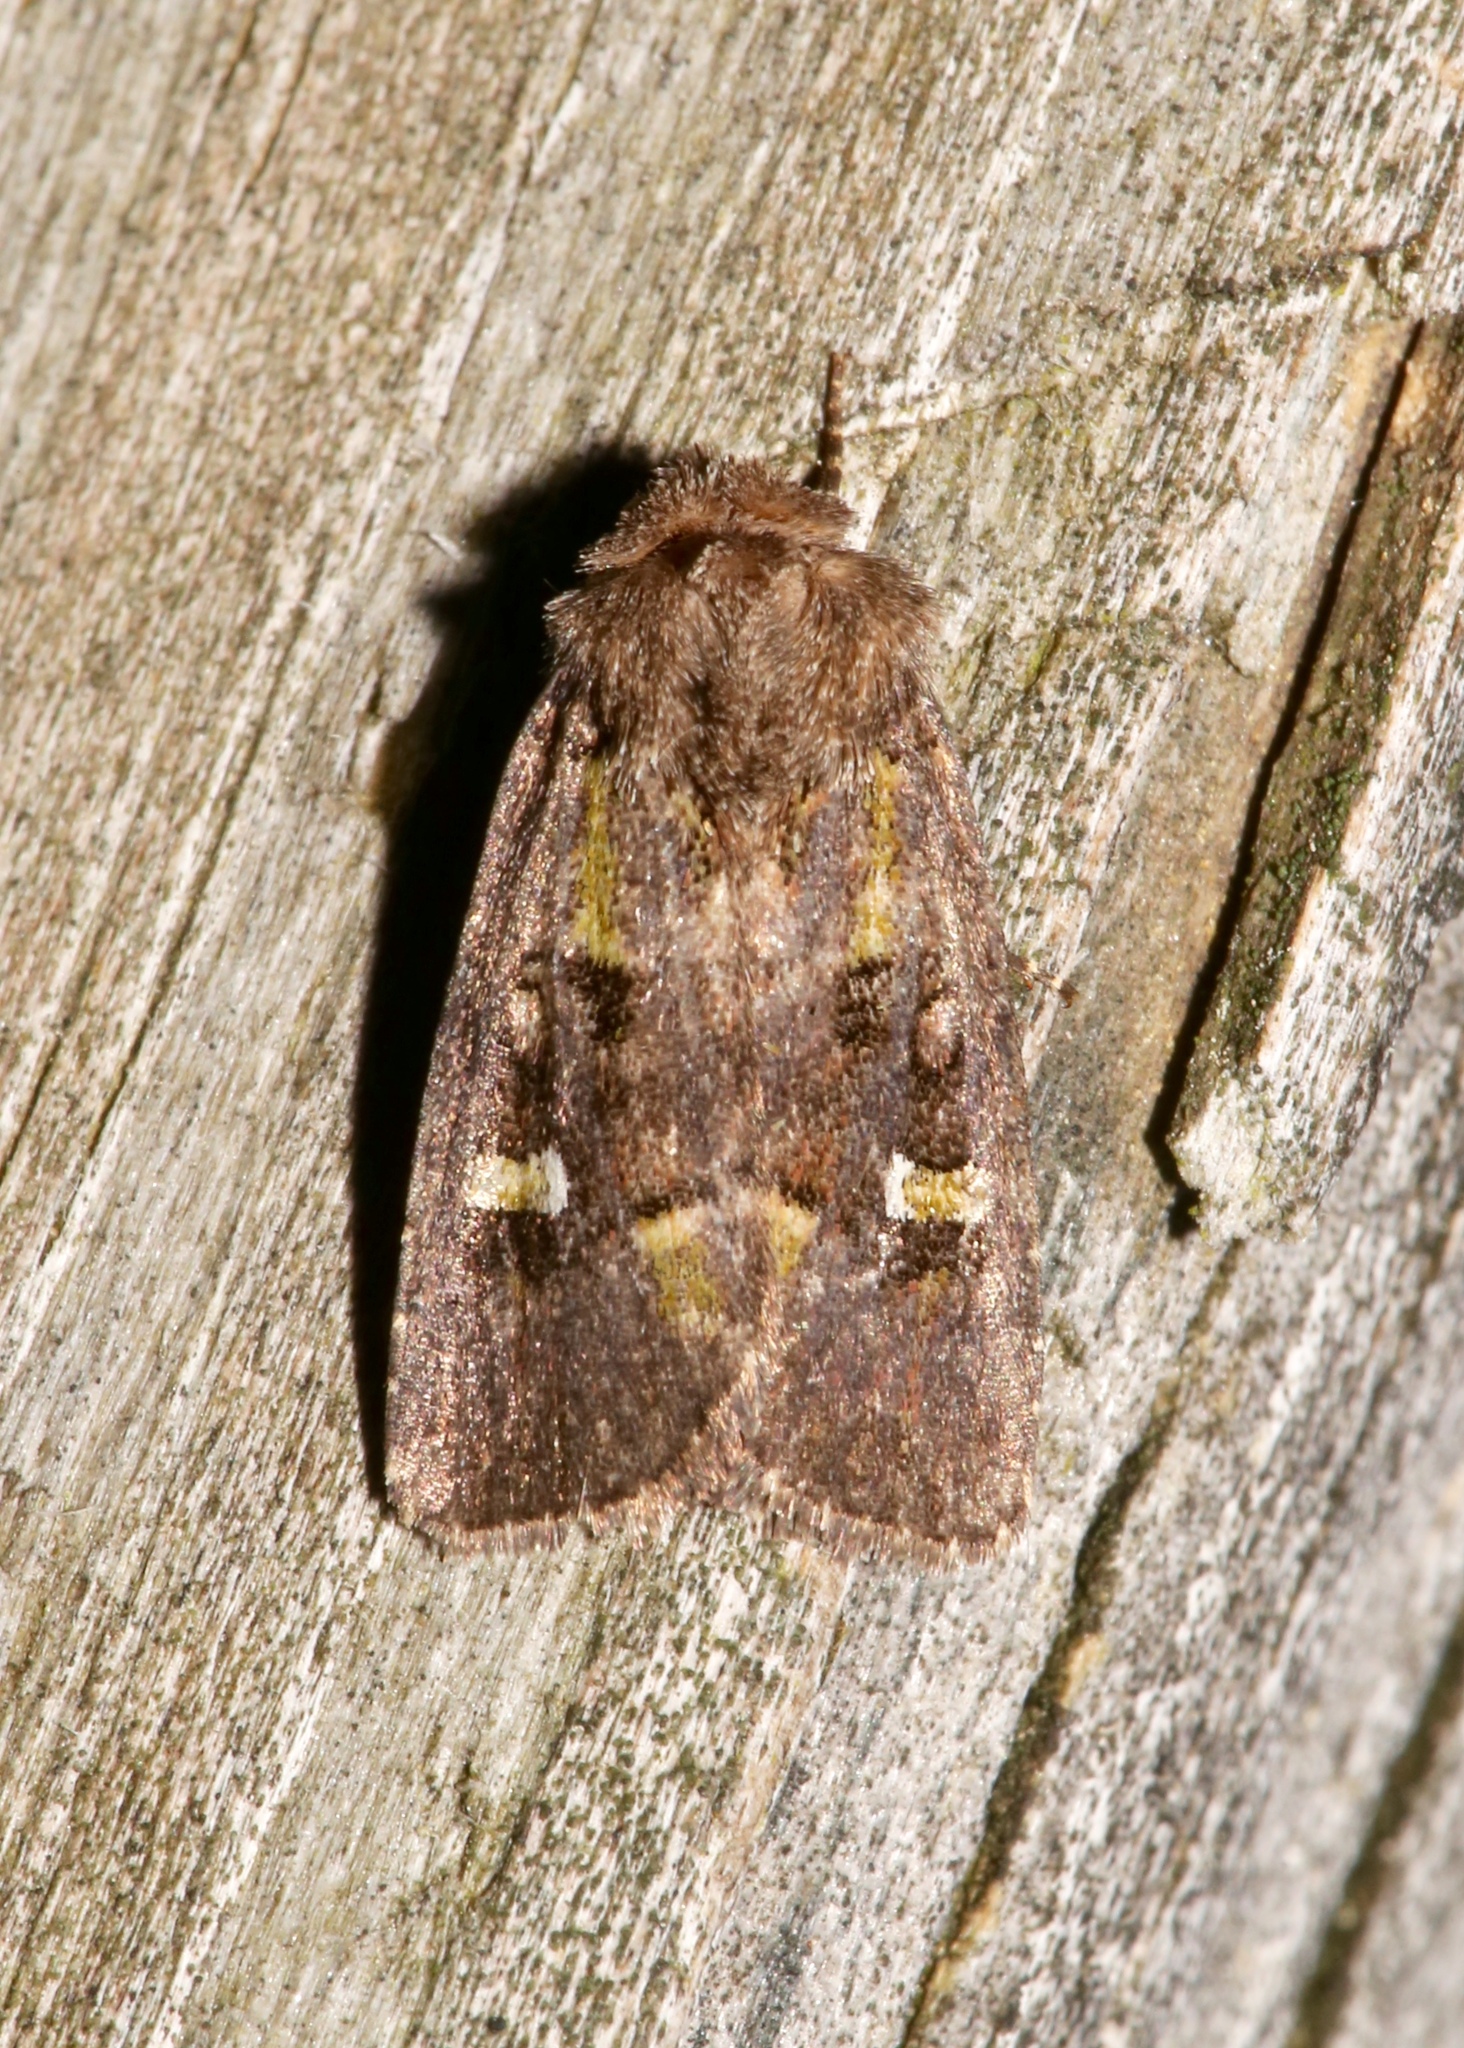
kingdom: Animalia
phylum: Arthropoda
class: Insecta
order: Lepidoptera
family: Noctuidae
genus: Lacinipolia
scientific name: Lacinipolia renigera
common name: Kidney-spotted minor
